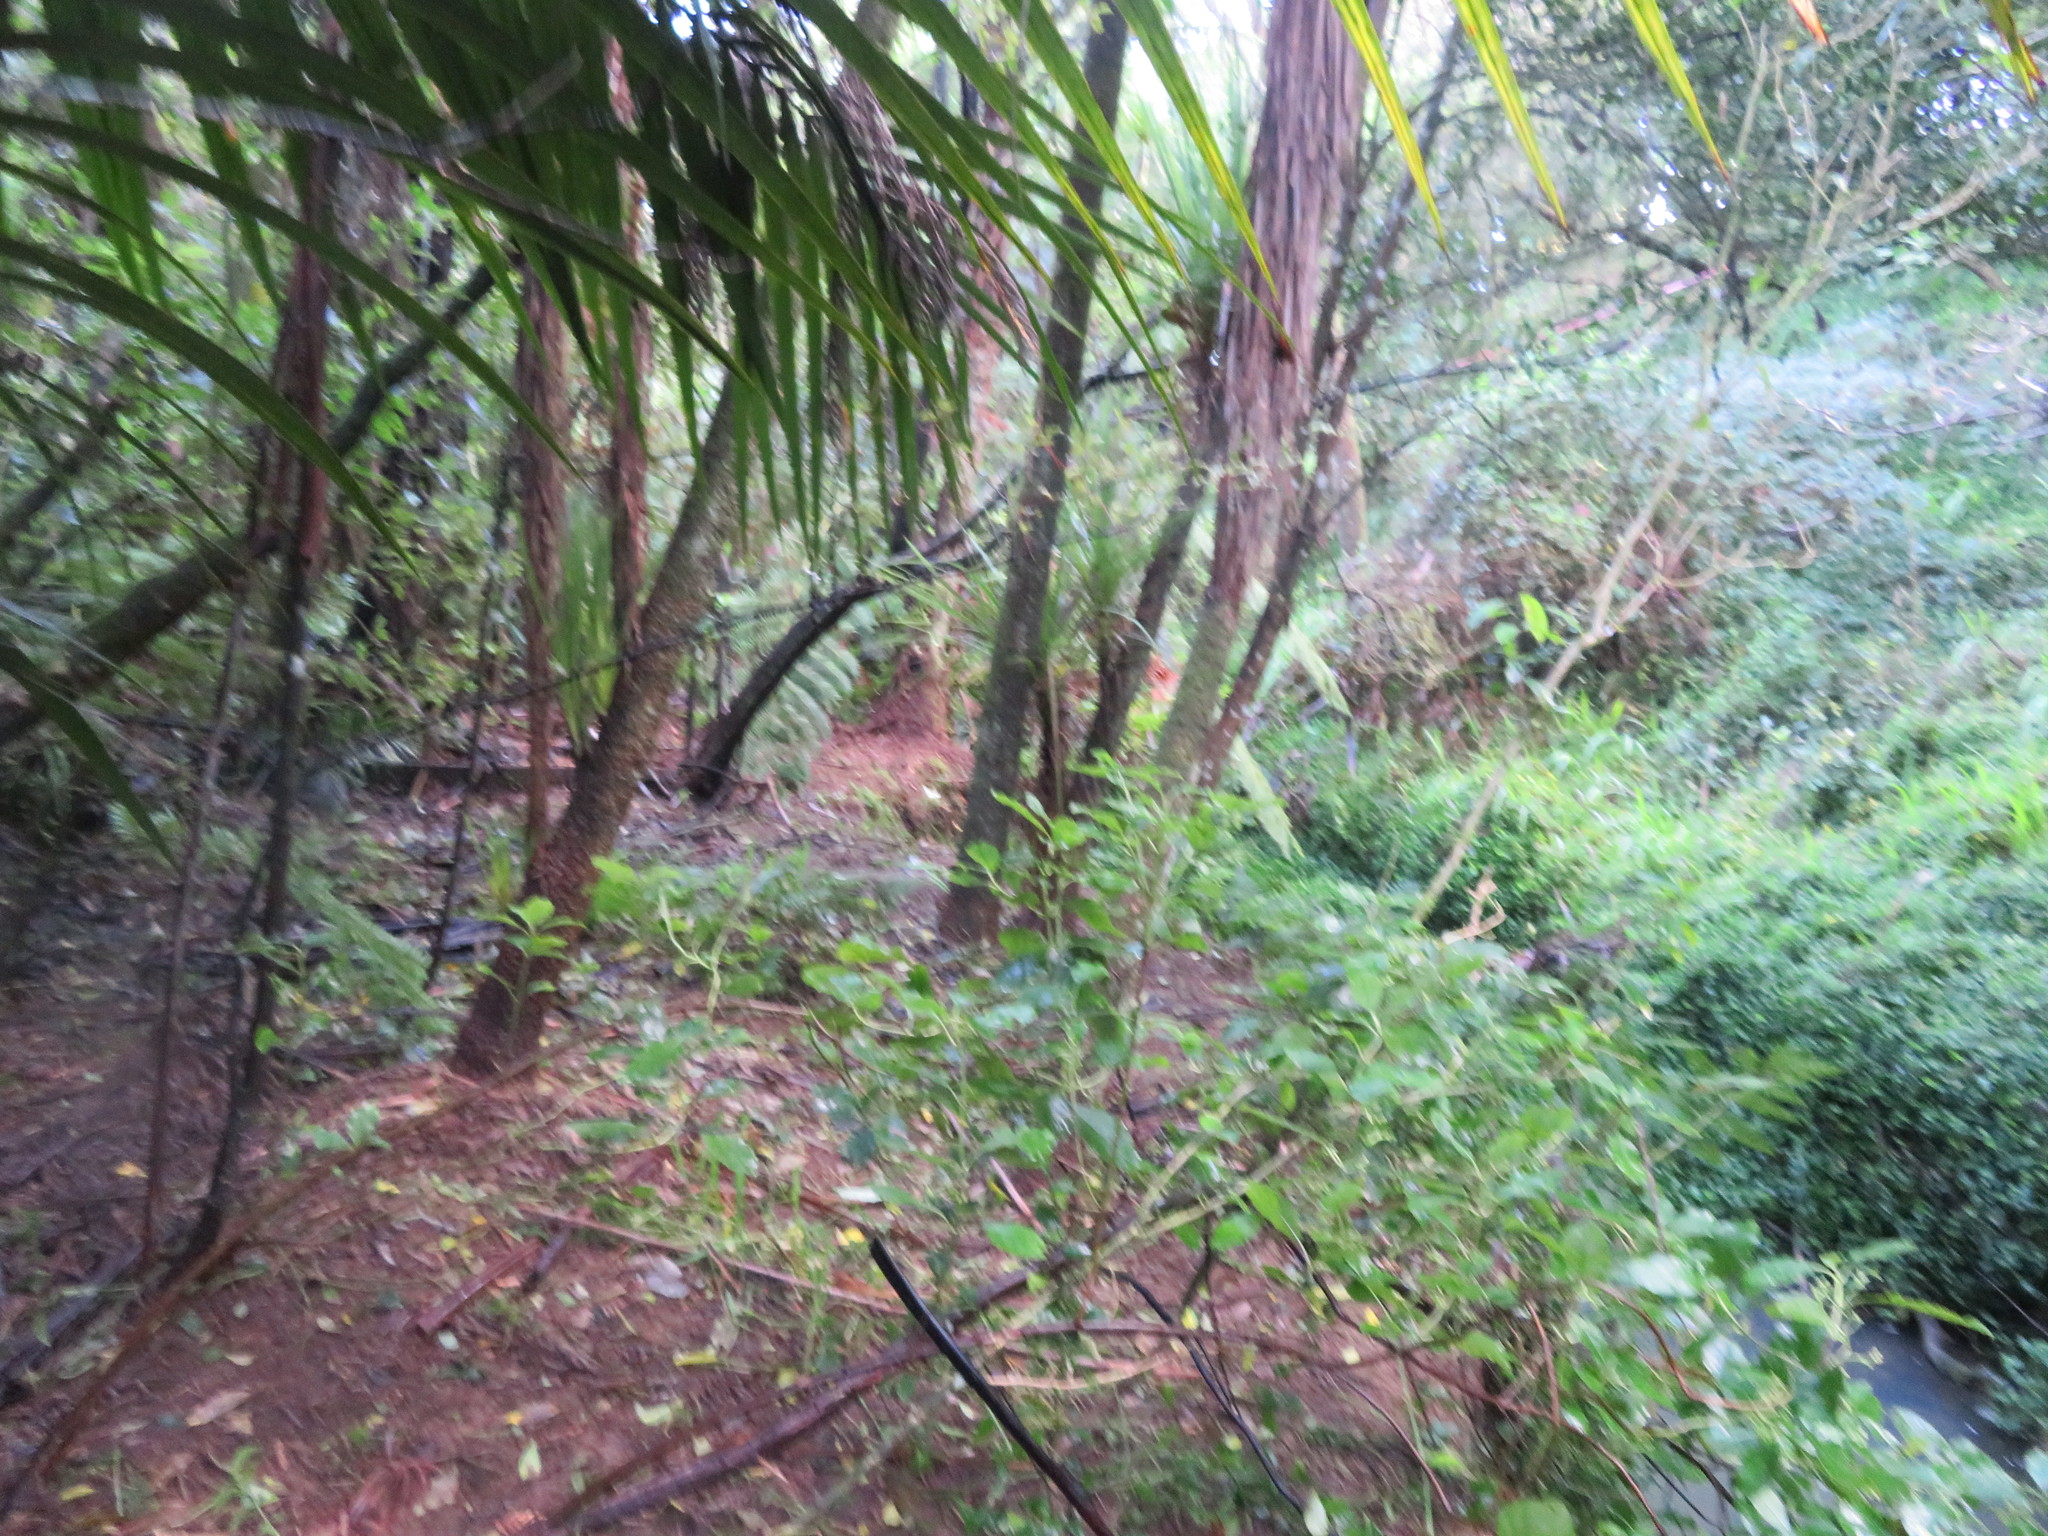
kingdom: Plantae
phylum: Tracheophyta
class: Liliopsida
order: Asparagales
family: Asparagaceae
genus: Cordyline
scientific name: Cordyline australis
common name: Cabbage-palm
